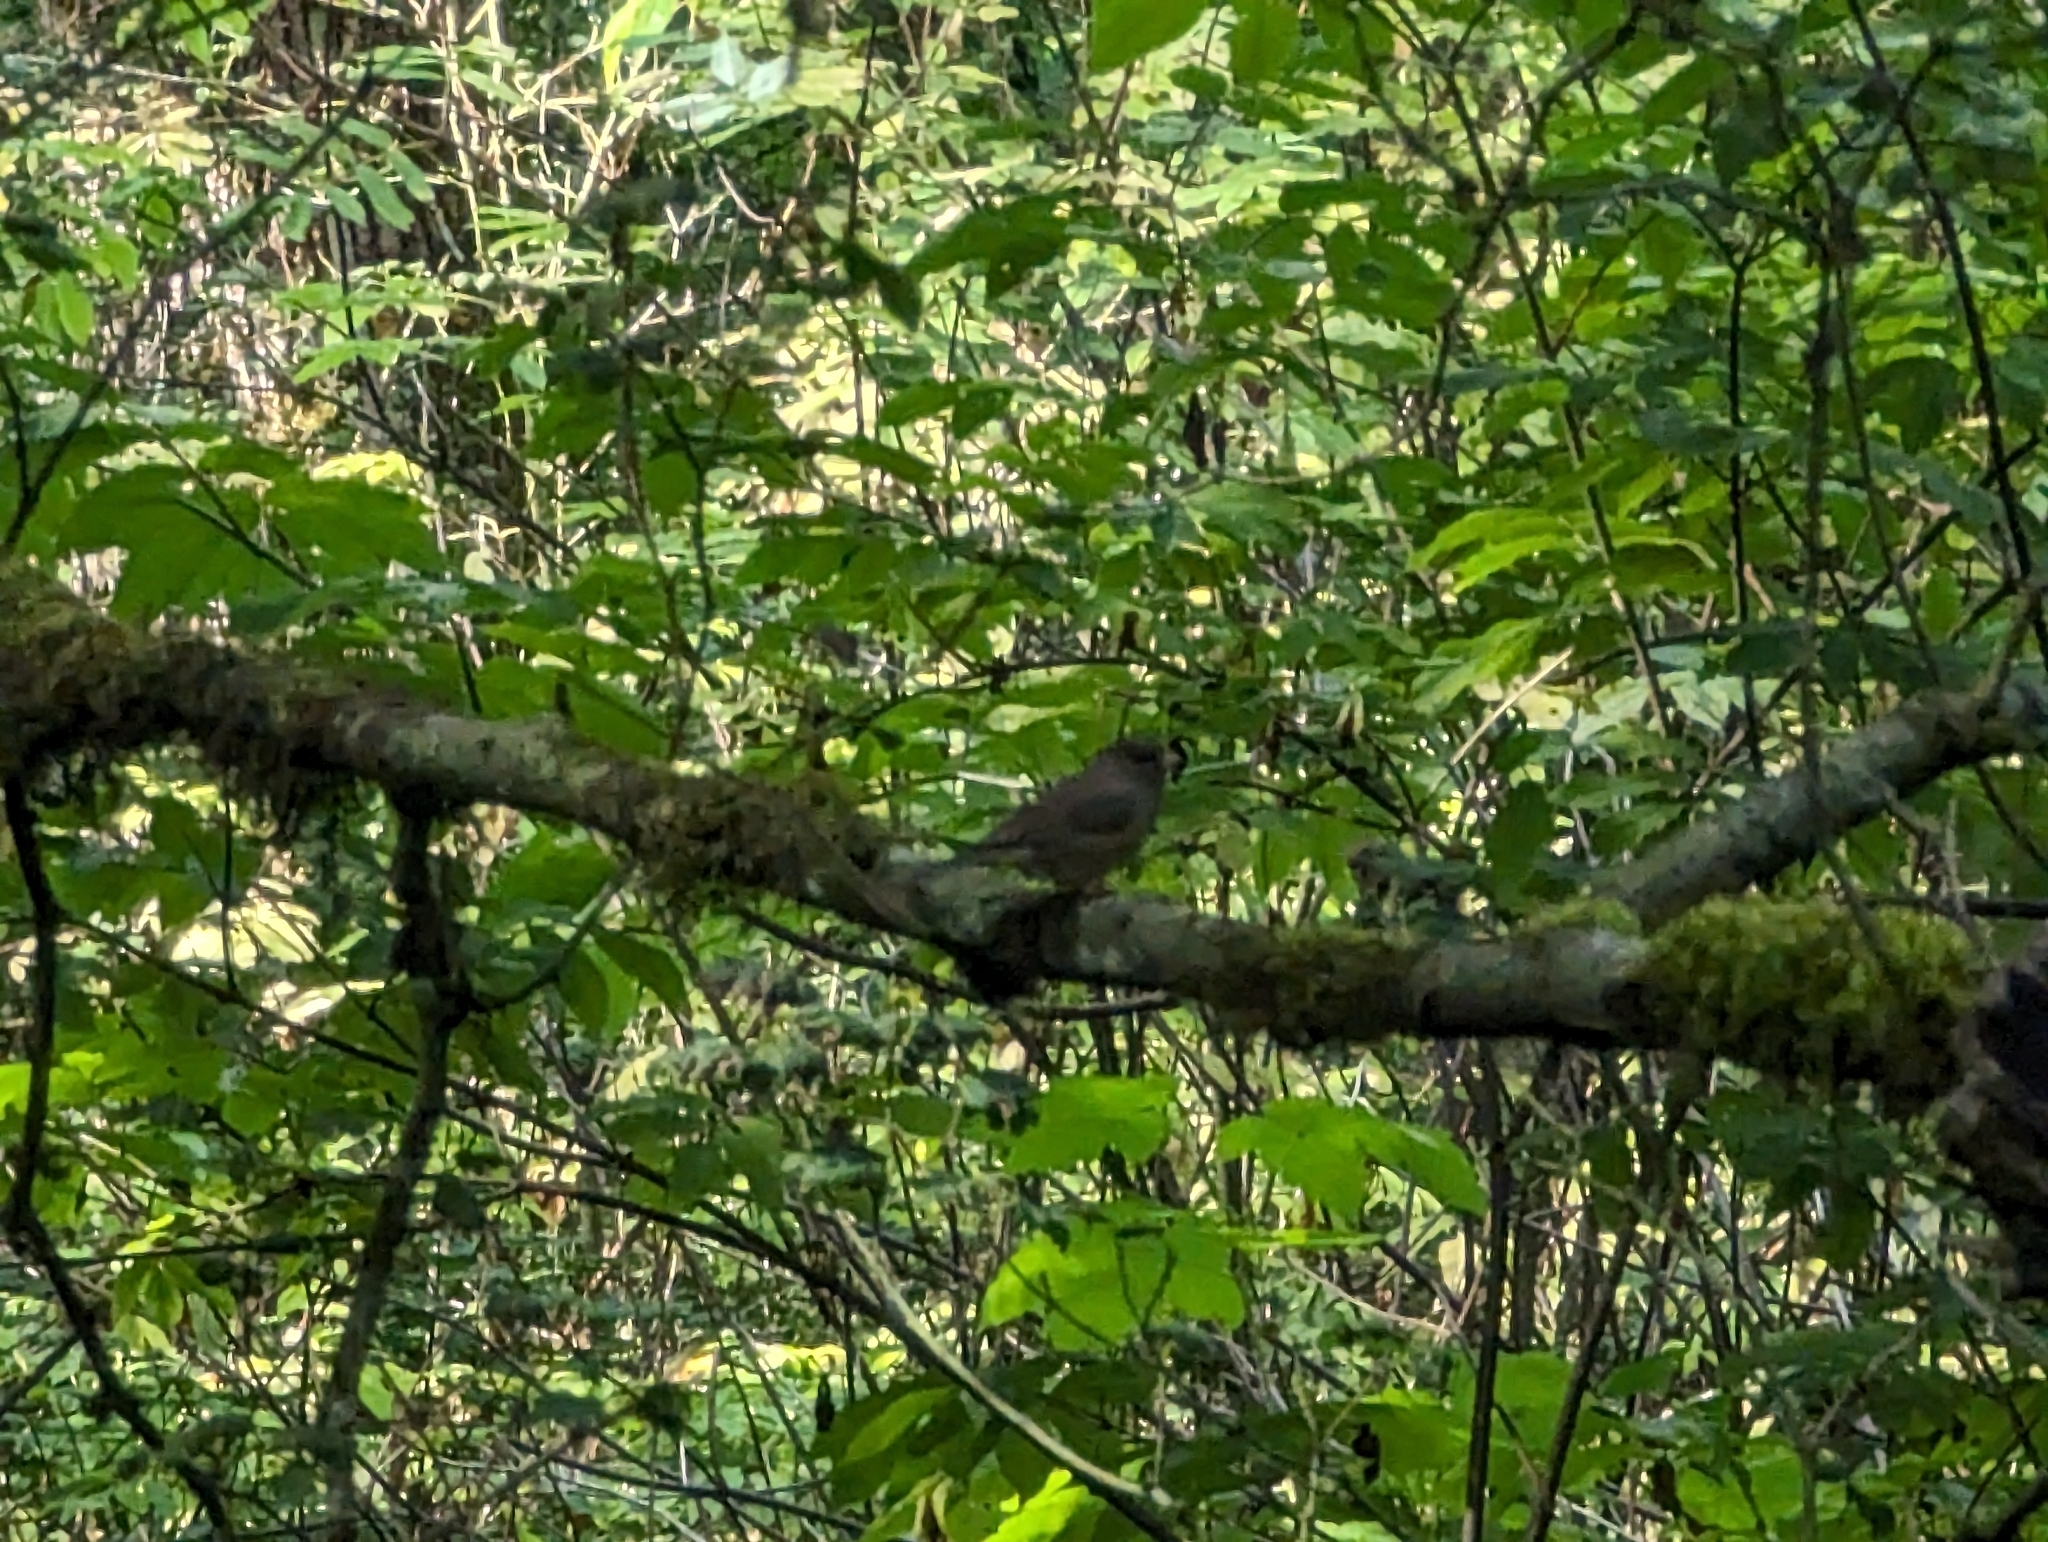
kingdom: Animalia
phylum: Chordata
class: Aves
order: Passeriformes
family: Passerellidae
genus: Junco
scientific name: Junco hyemalis
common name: Dark-eyed junco
